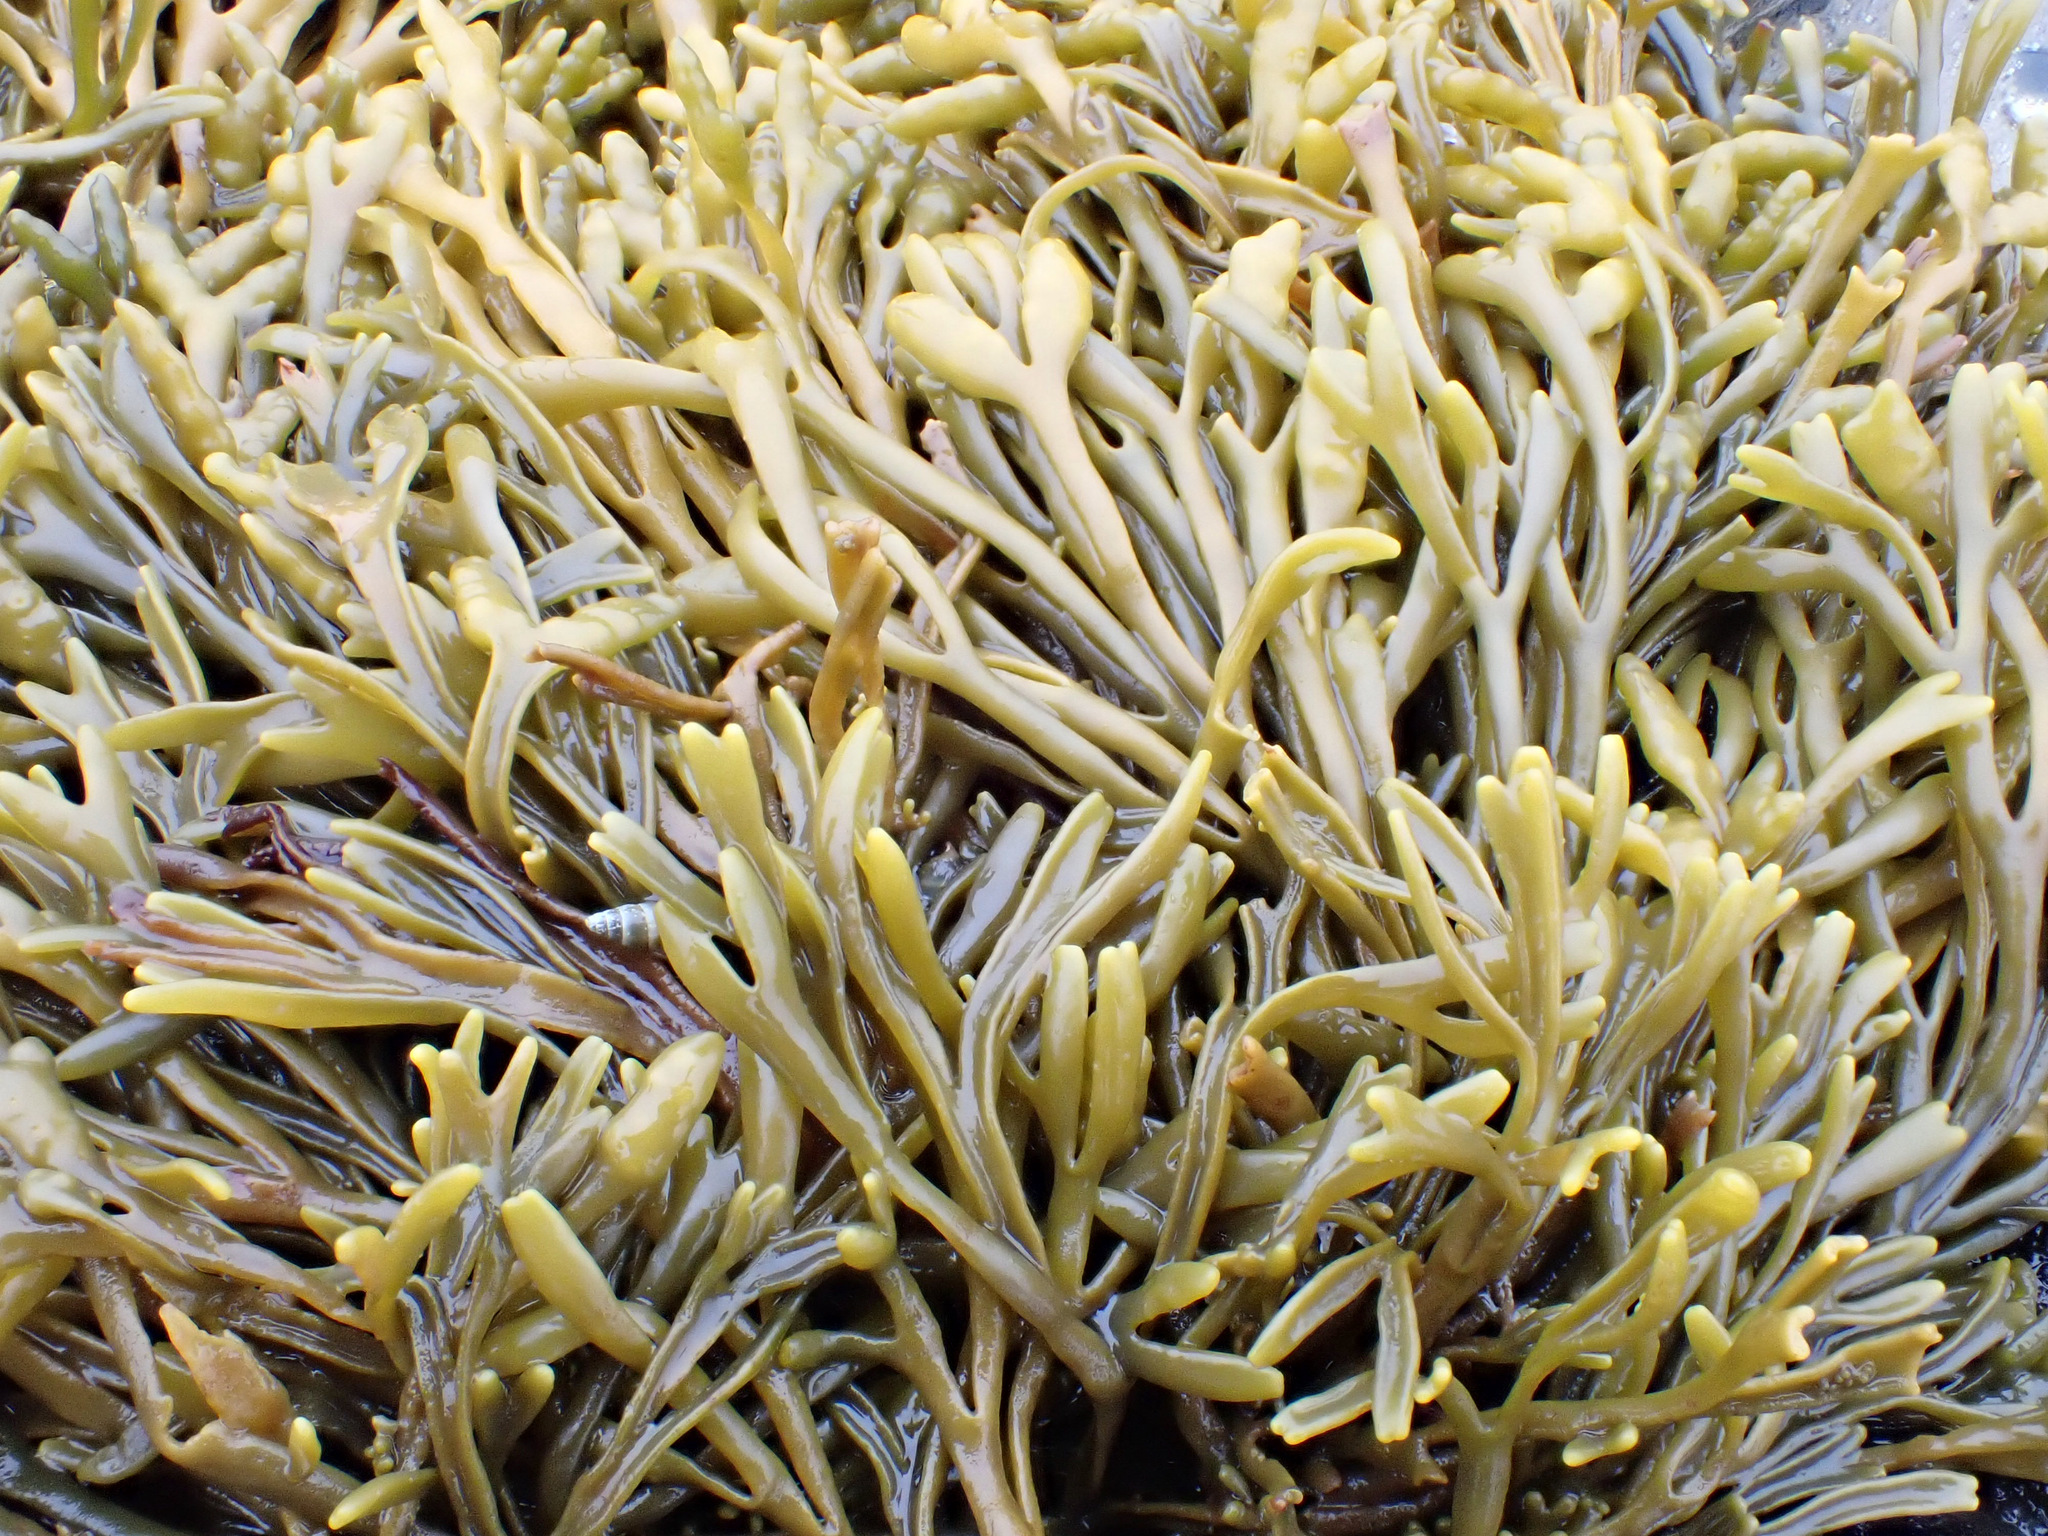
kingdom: Chromista
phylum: Ochrophyta
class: Phaeophyceae
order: Fucales
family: Fucaceae
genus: Pelvetia
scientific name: Pelvetia canaliculata
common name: Channelled wrack
